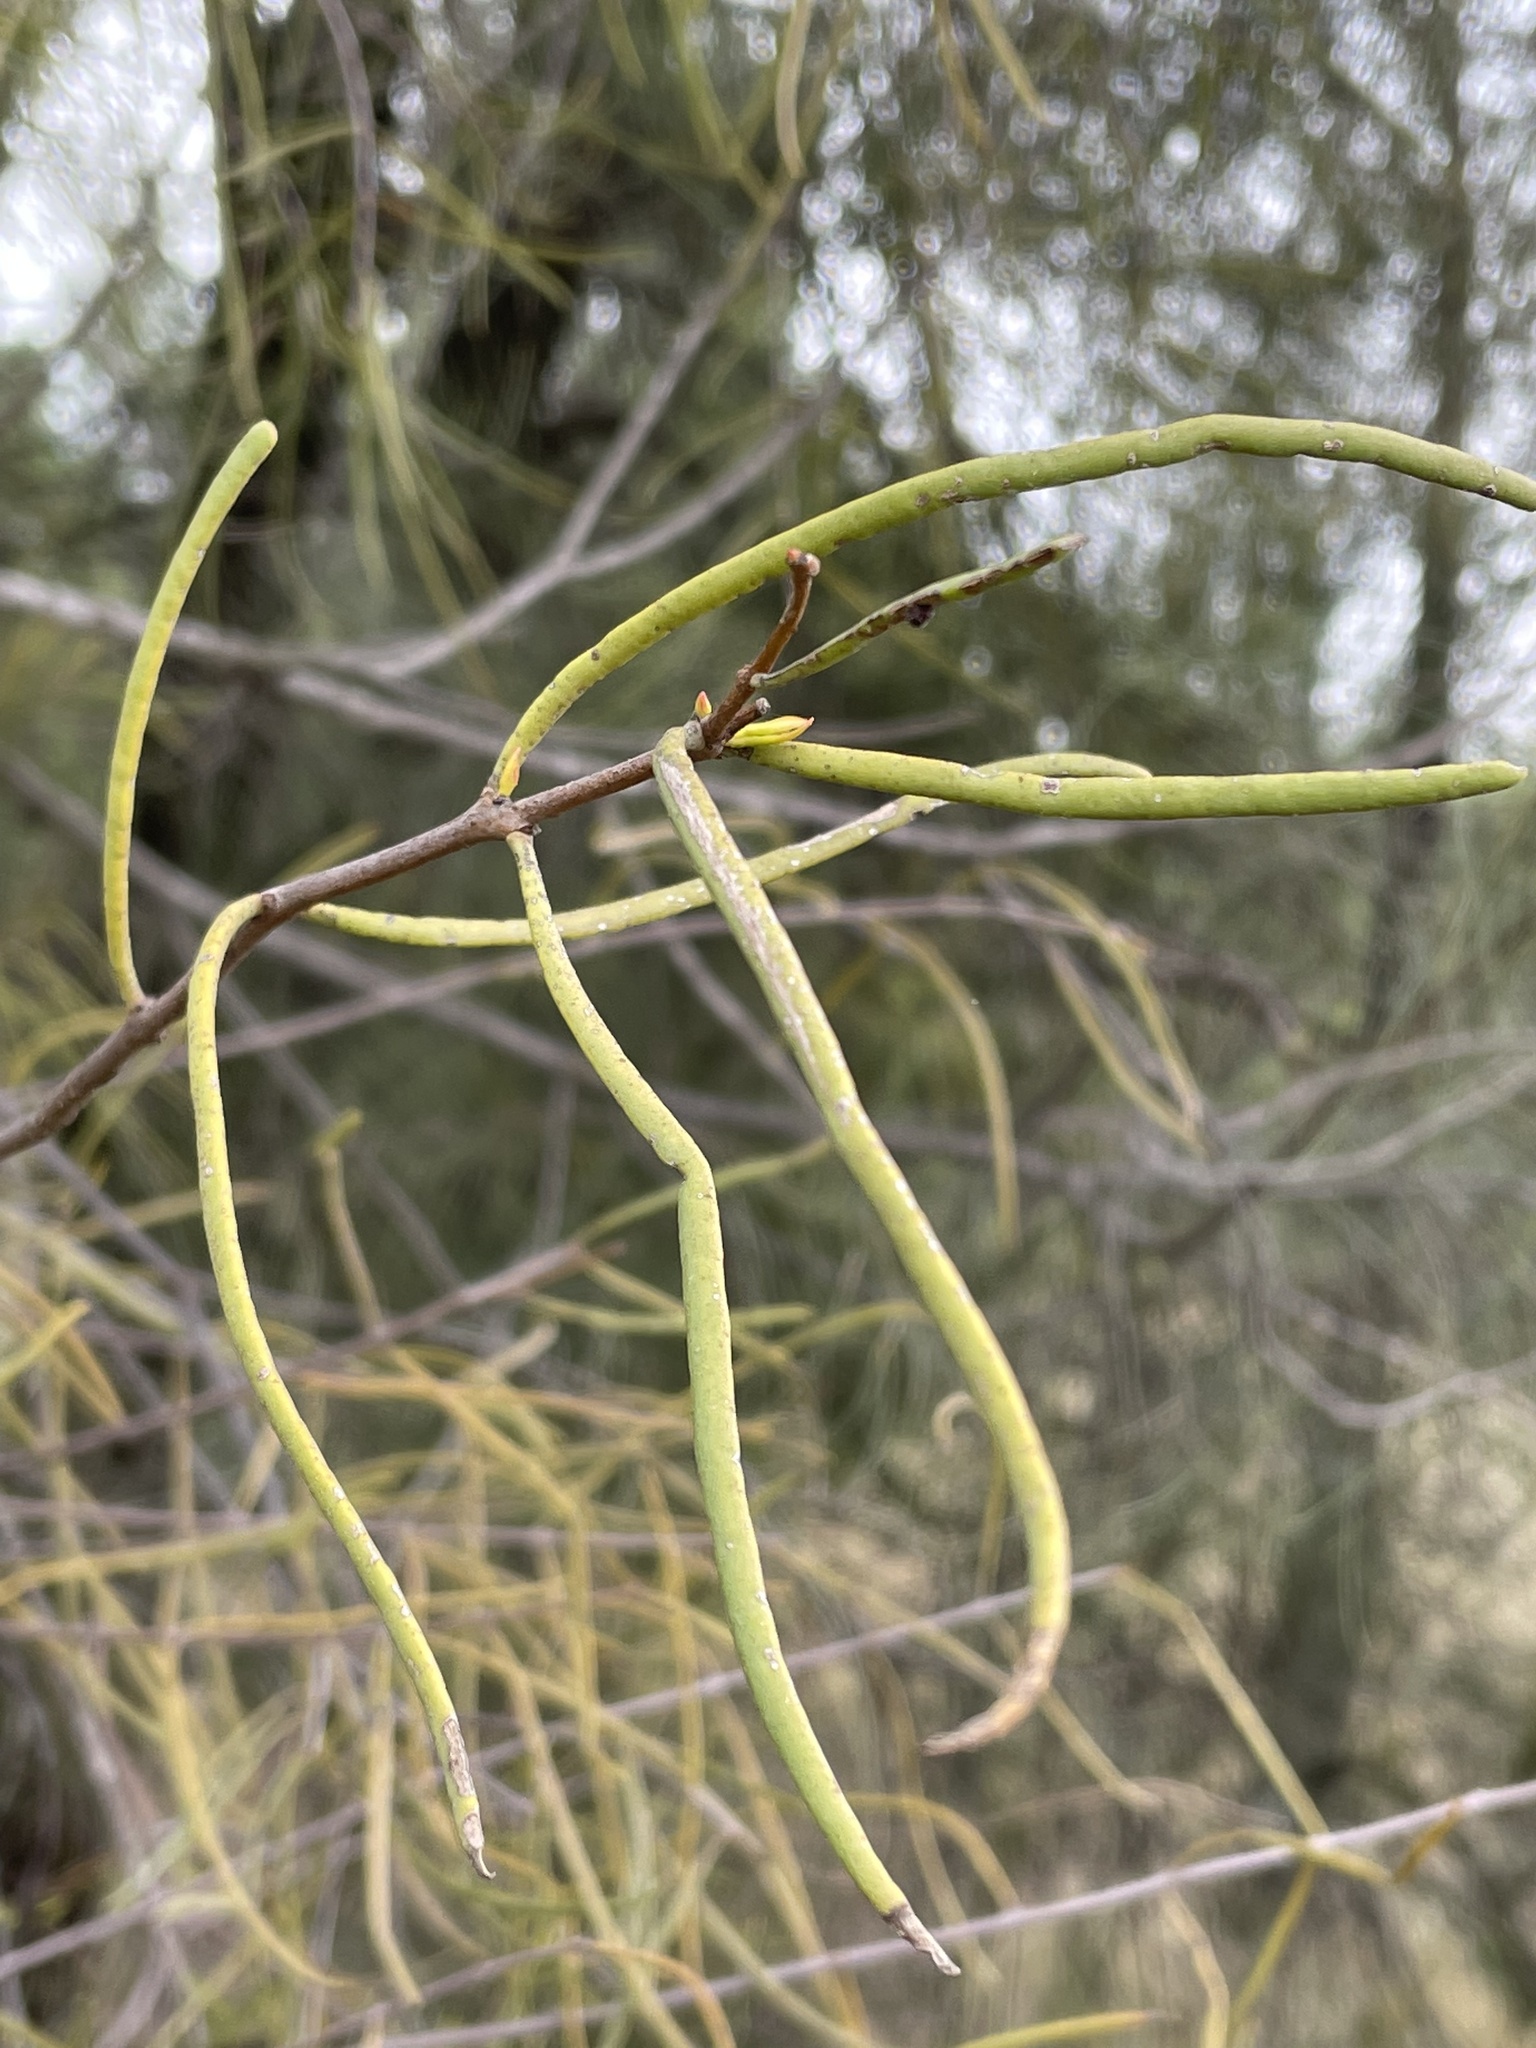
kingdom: Plantae
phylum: Tracheophyta
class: Magnoliopsida
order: Santalales
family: Loranthaceae
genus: Amyema
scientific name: Amyema linophylla
